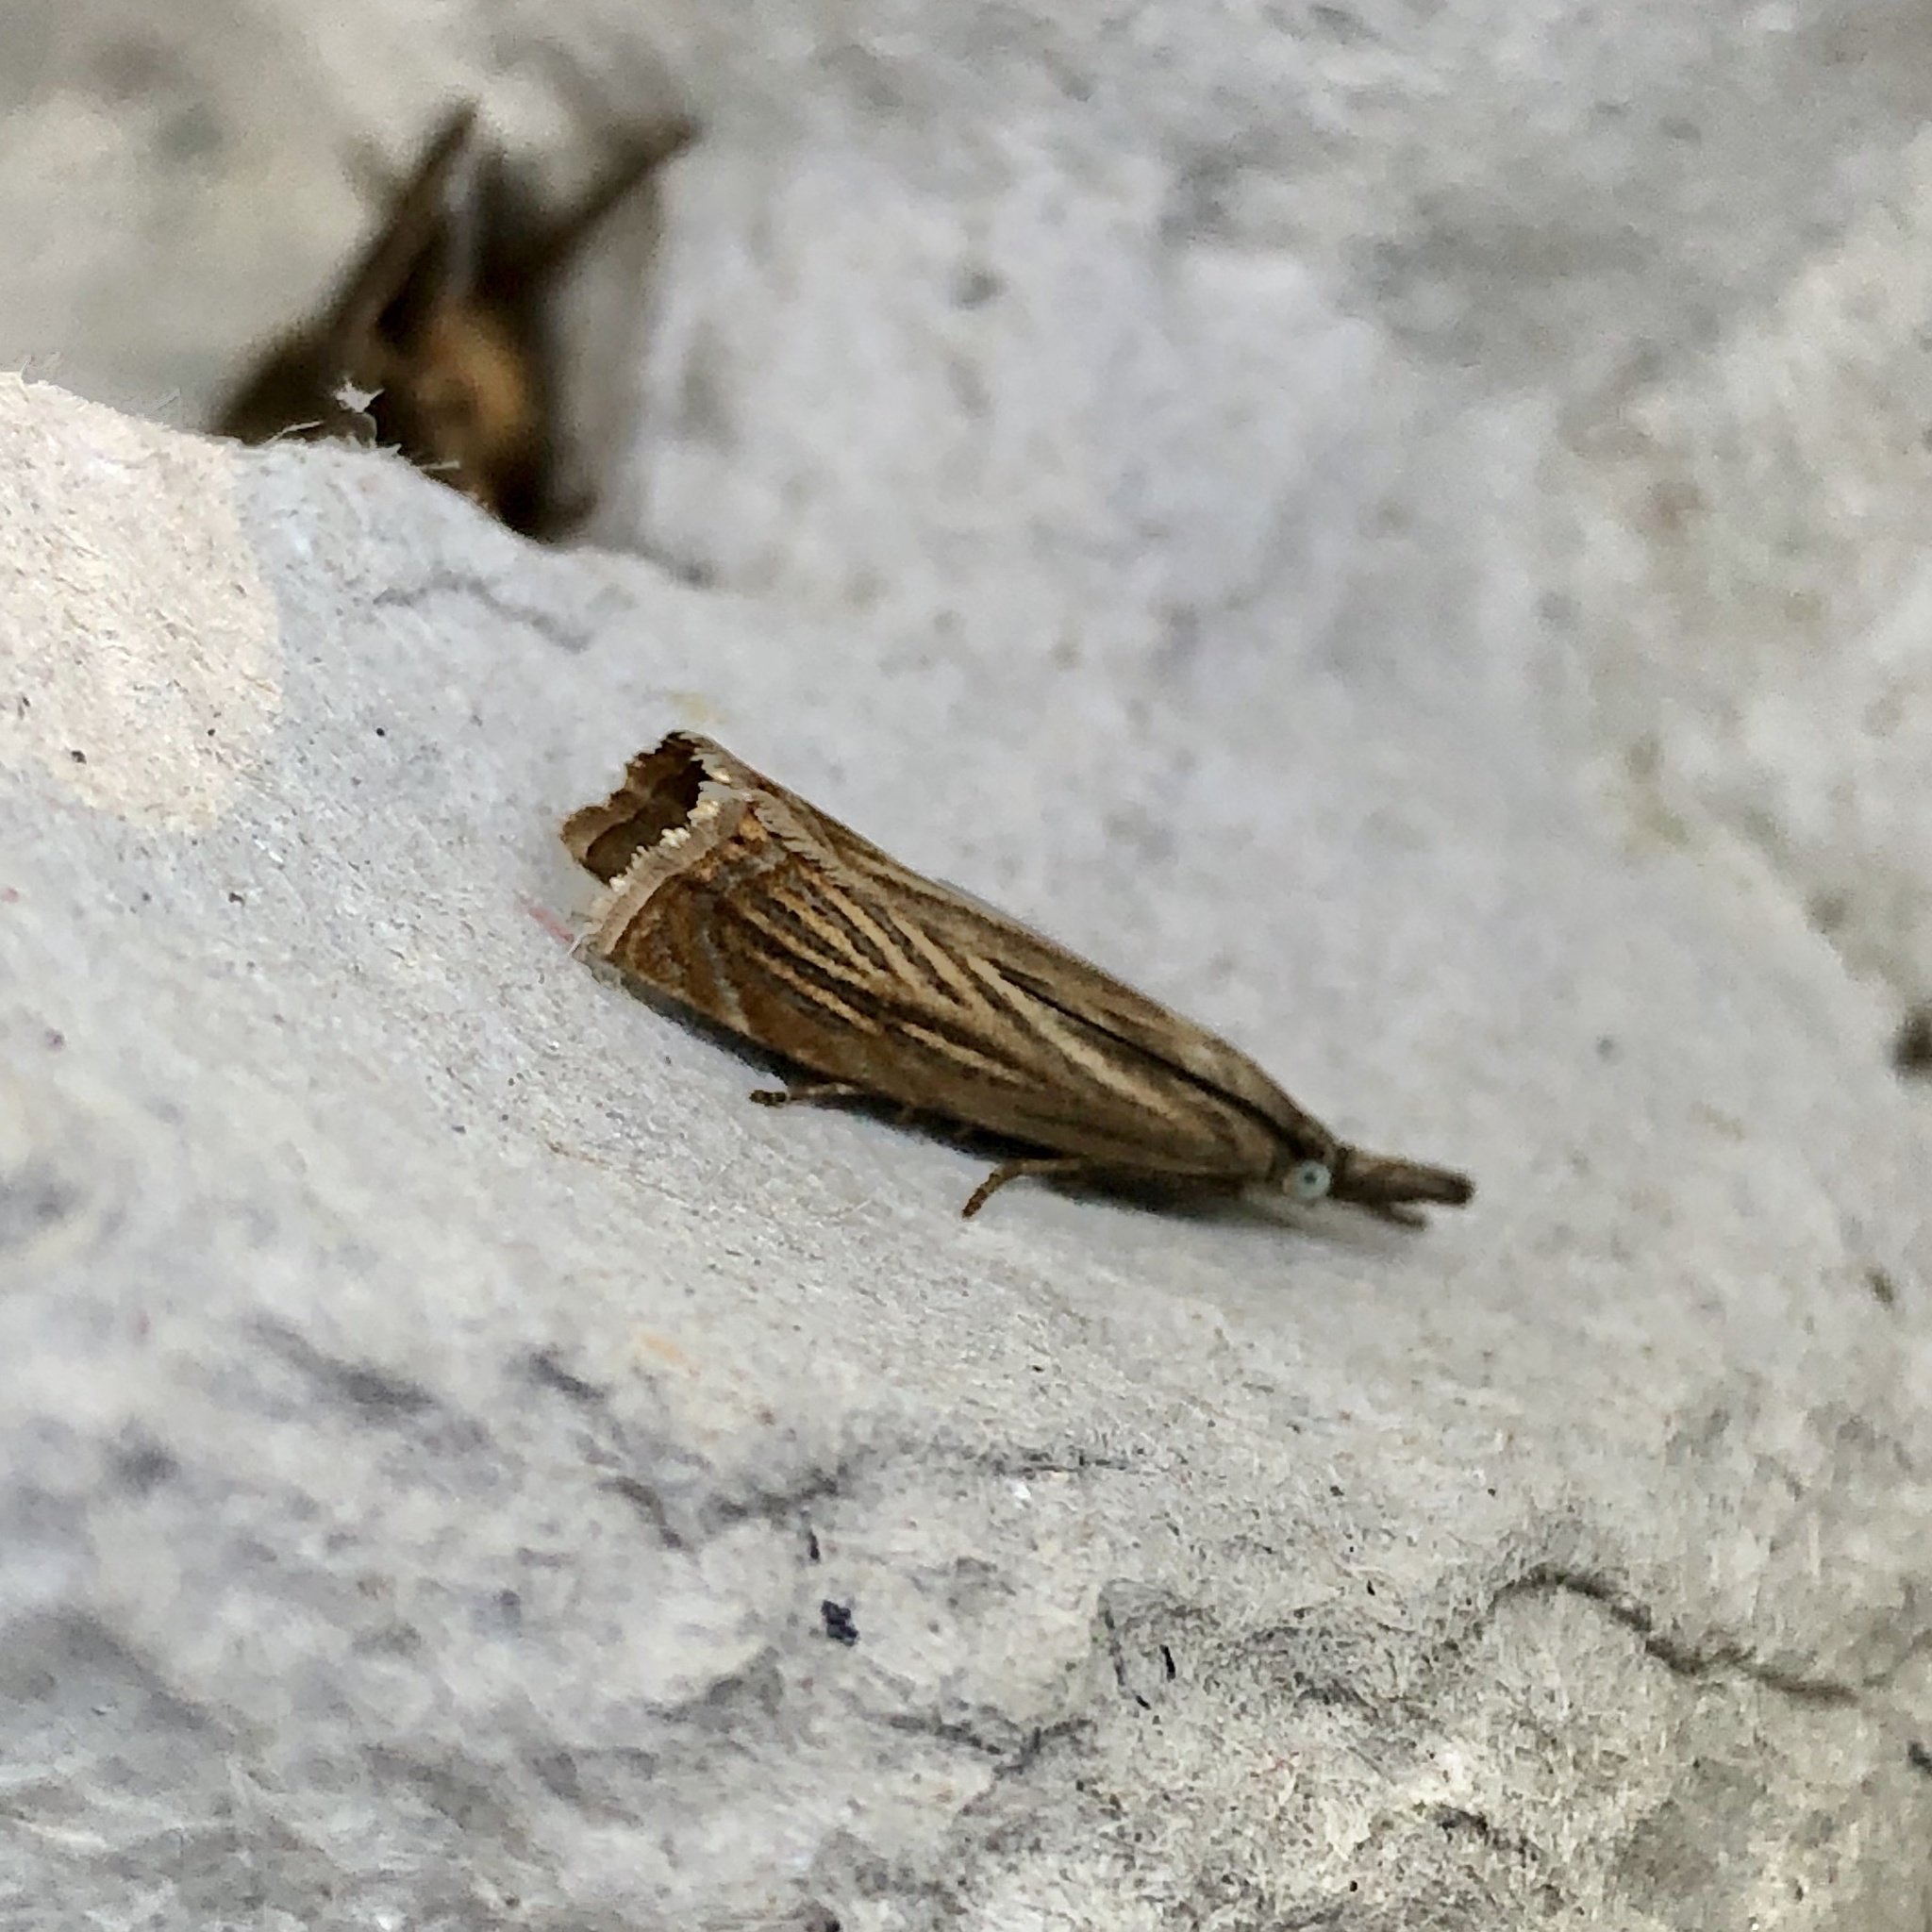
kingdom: Animalia
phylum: Arthropoda
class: Insecta
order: Lepidoptera
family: Crambidae
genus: Chrysoteuchia
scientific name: Chrysoteuchia culmella
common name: Garden grass-veneer
